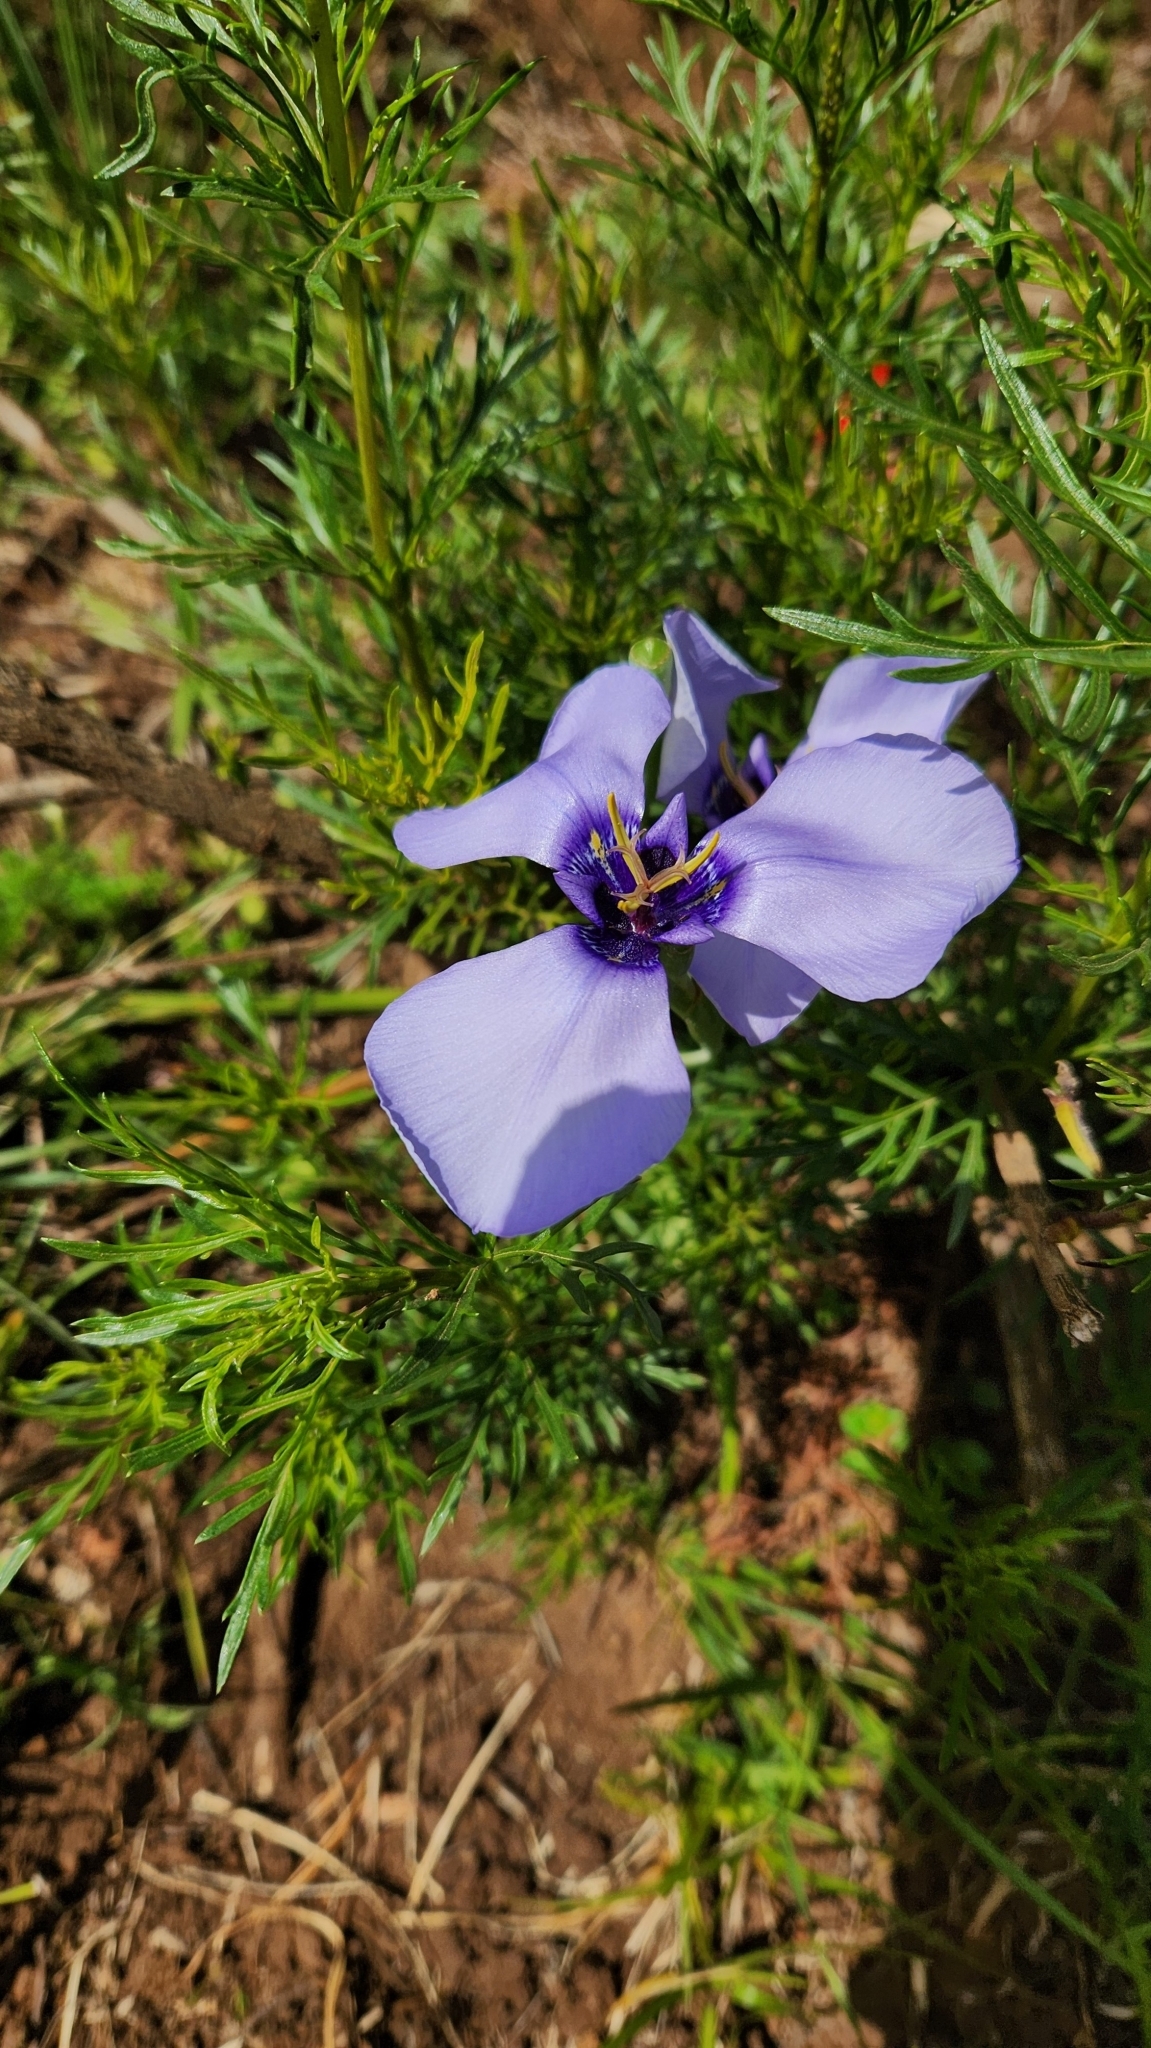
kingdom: Plantae
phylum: Tracheophyta
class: Liliopsida
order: Asparagales
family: Iridaceae
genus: Herbertia
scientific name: Herbertia darwinii
